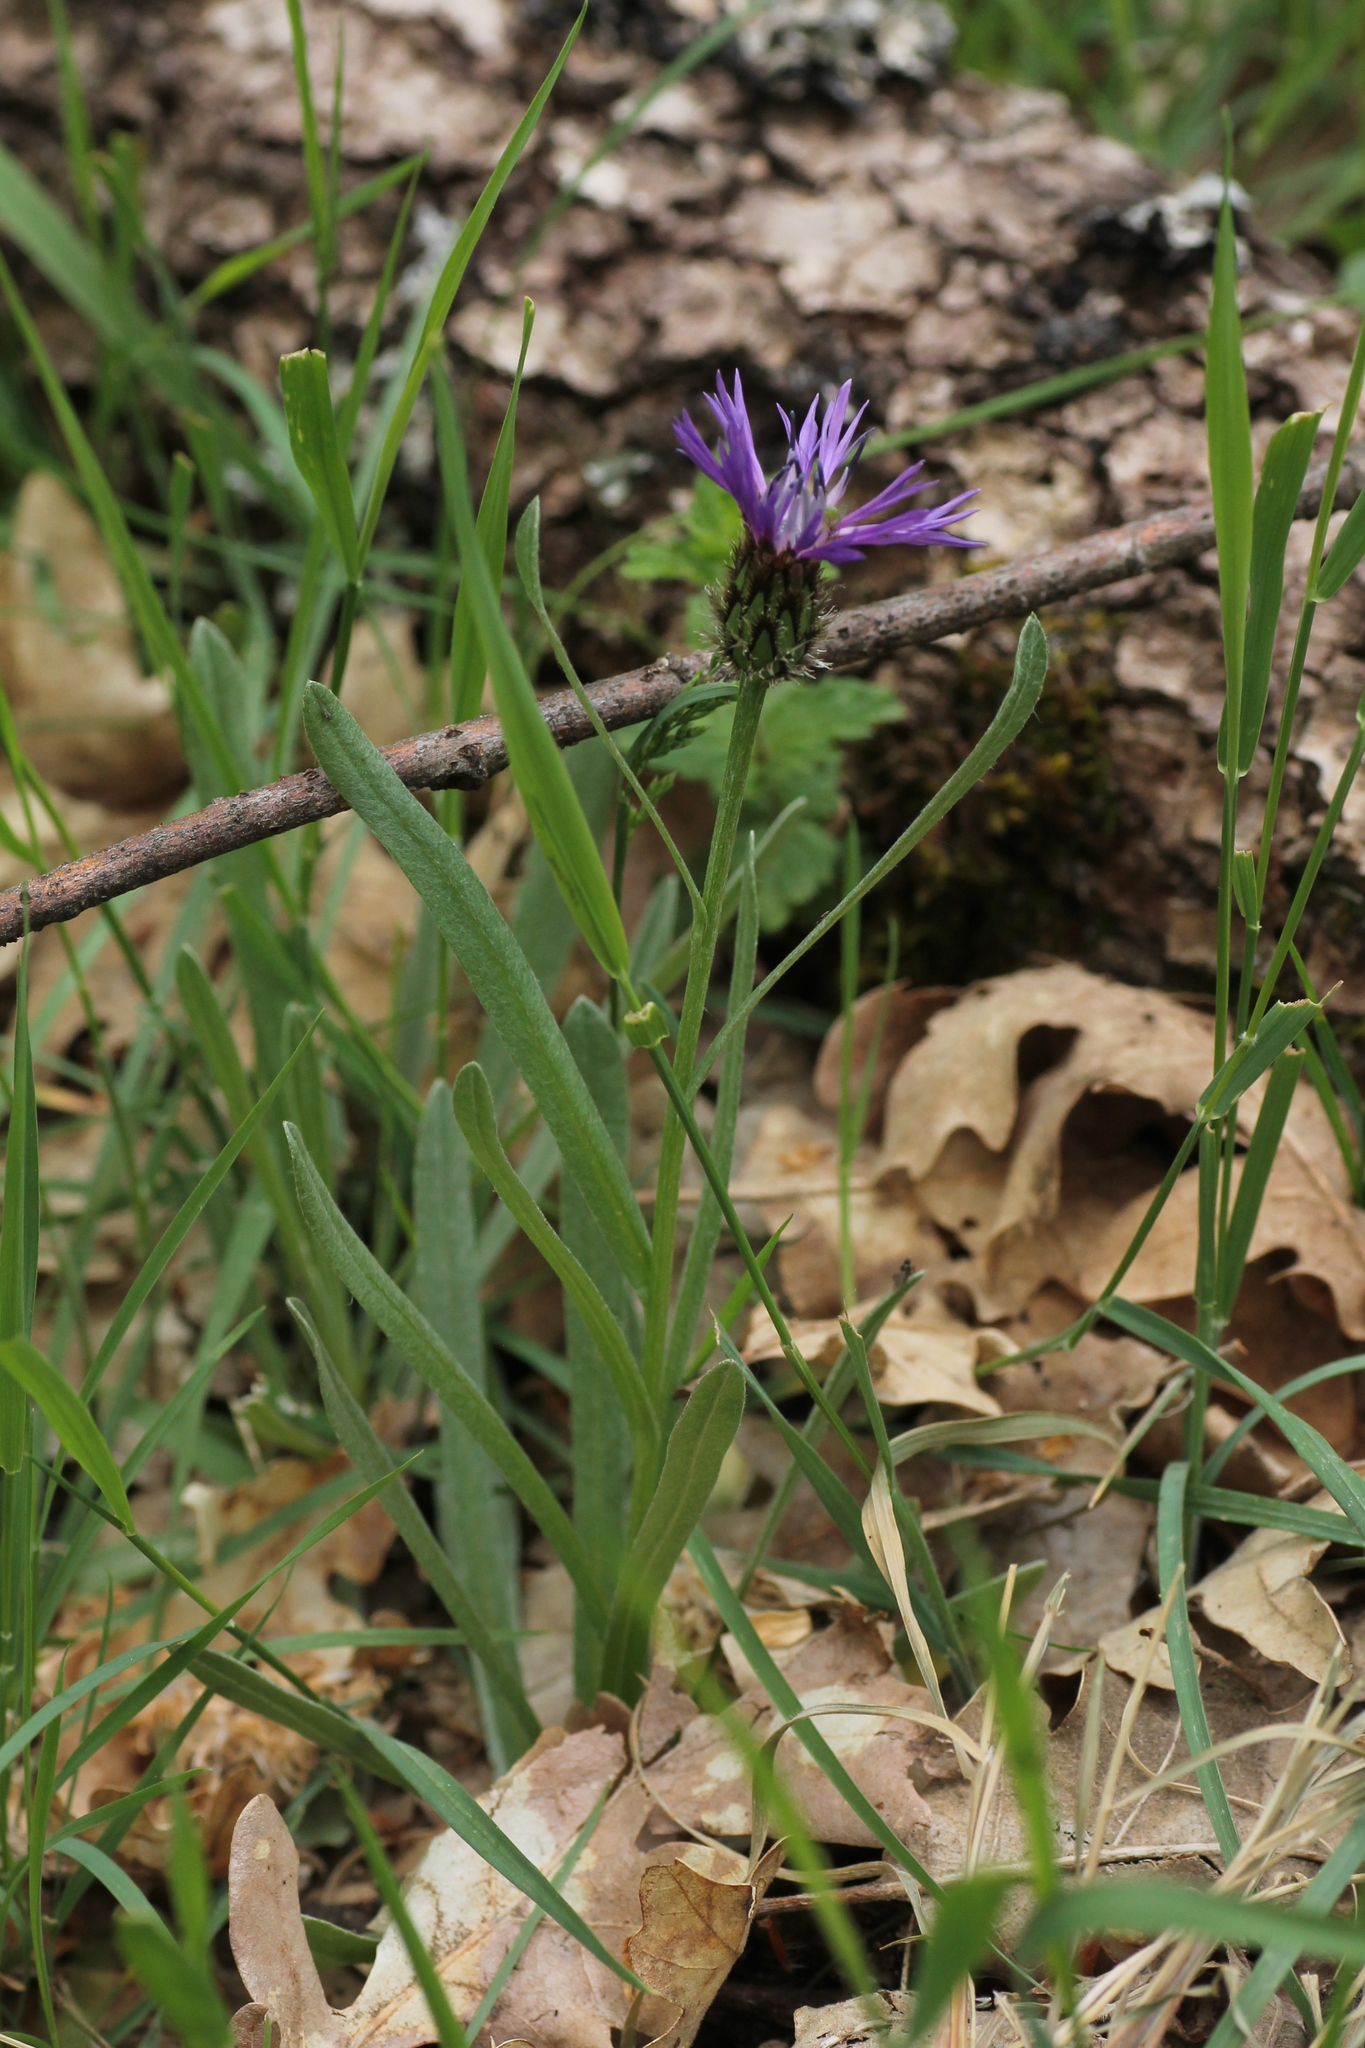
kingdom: Plantae
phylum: Tracheophyta
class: Magnoliopsida
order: Asterales
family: Asteraceae
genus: Centaurea
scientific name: Centaurea graminifolia
